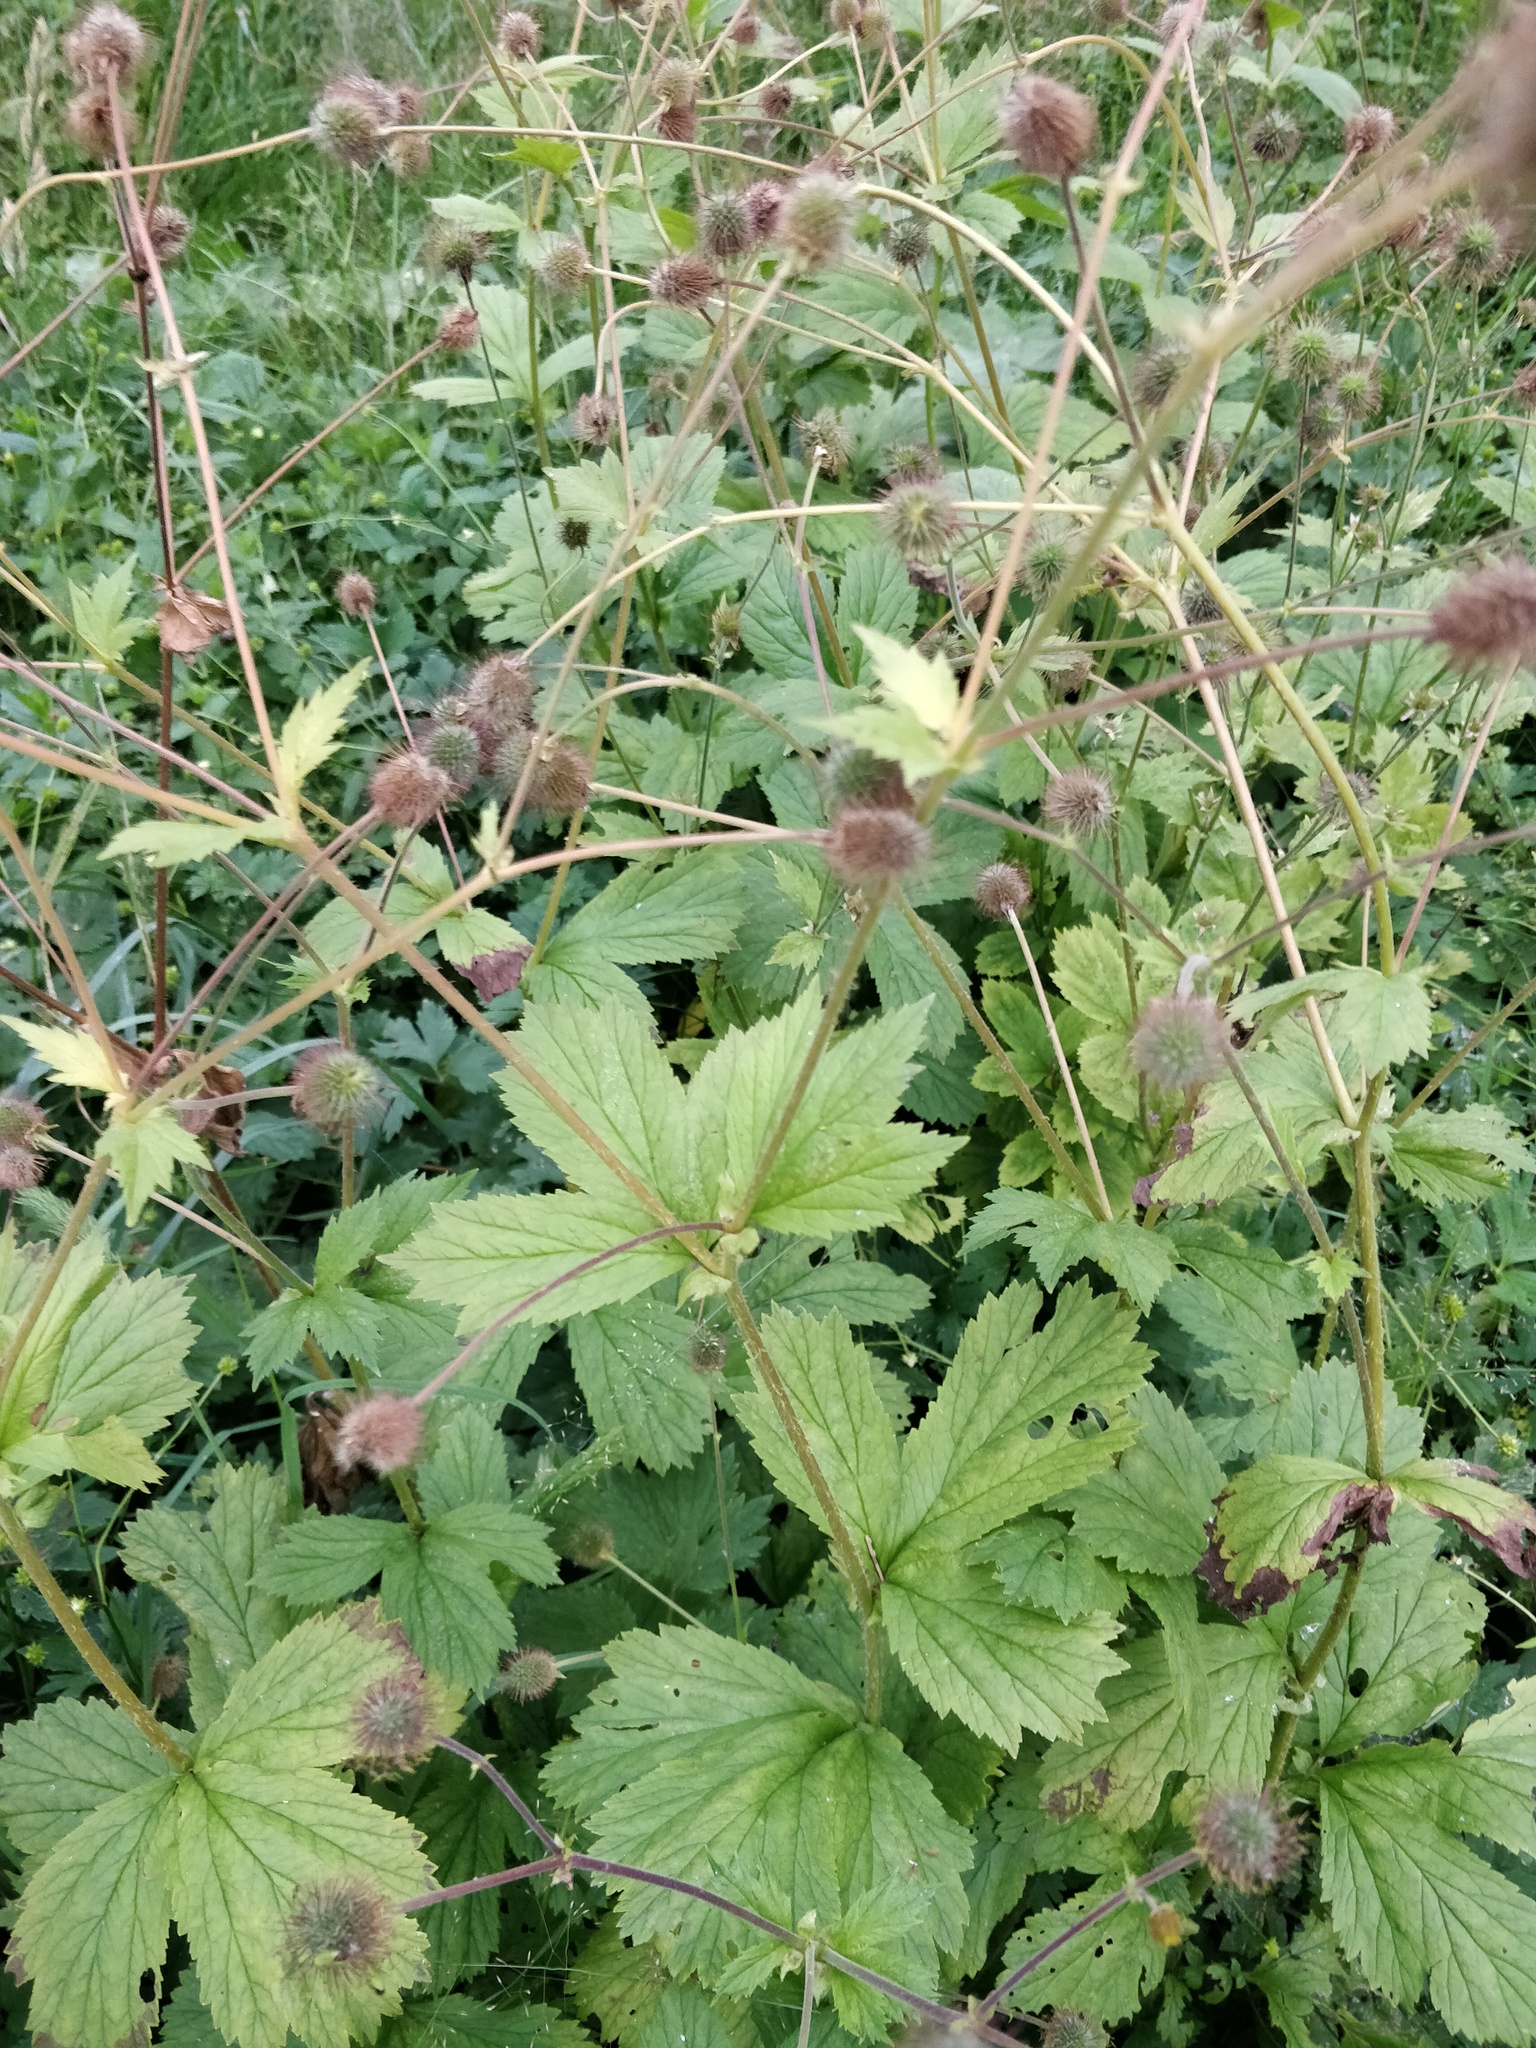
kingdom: Plantae
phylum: Tracheophyta
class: Magnoliopsida
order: Rosales
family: Rosaceae
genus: Geum
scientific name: Geum rivale
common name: Water avens
